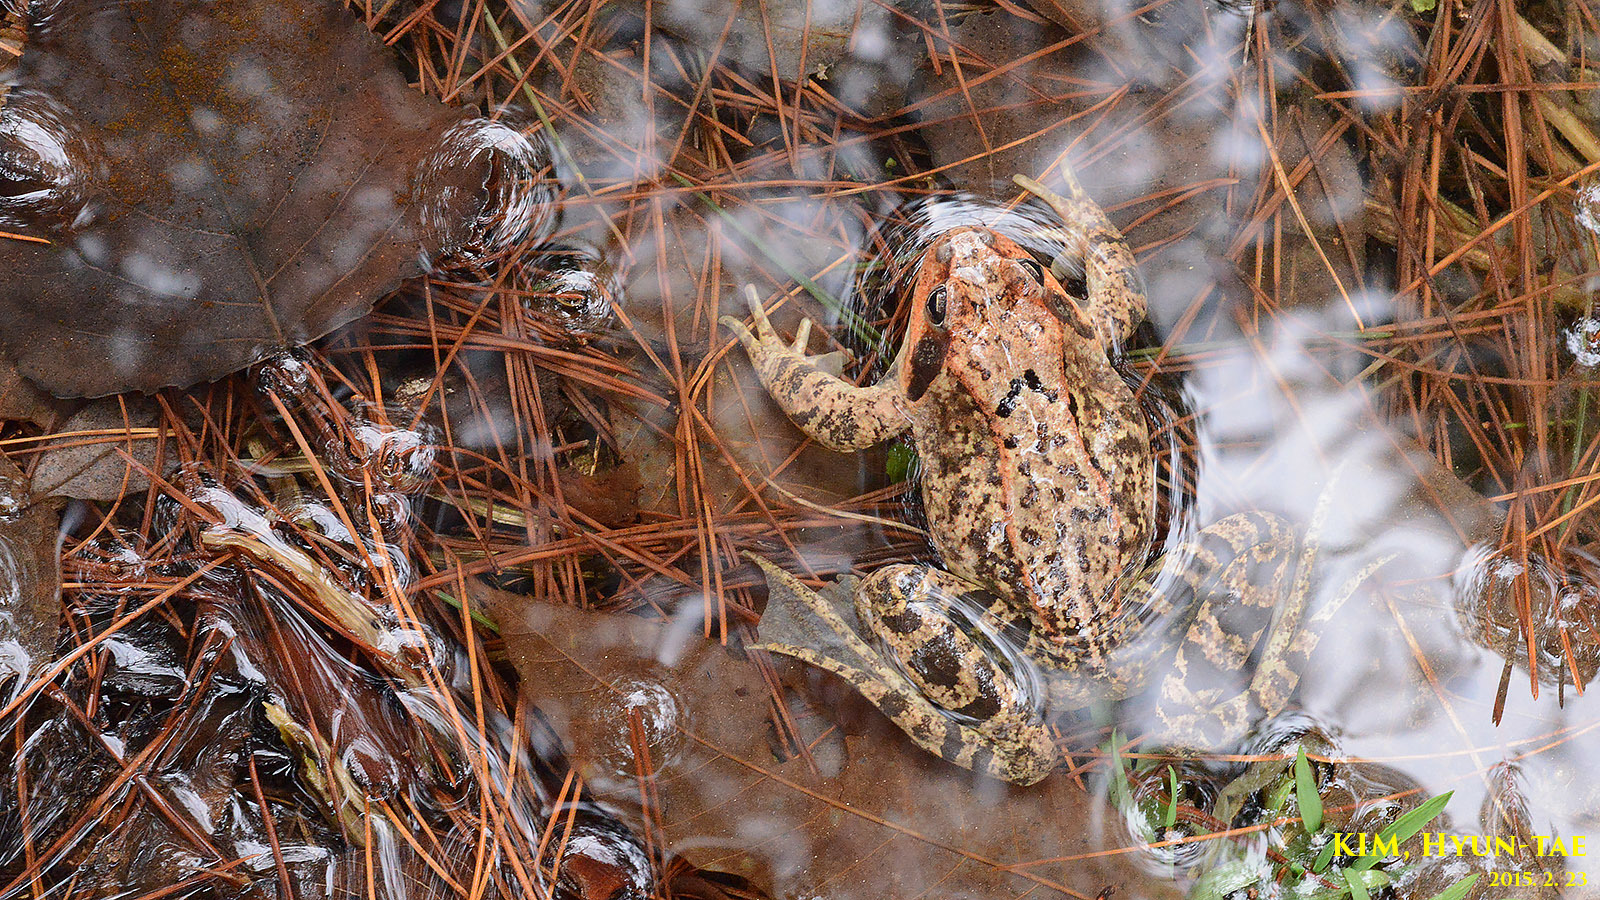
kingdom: Animalia
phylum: Chordata
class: Amphibia
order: Anura
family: Ranidae
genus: Rana
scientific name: Rana dybowskii
